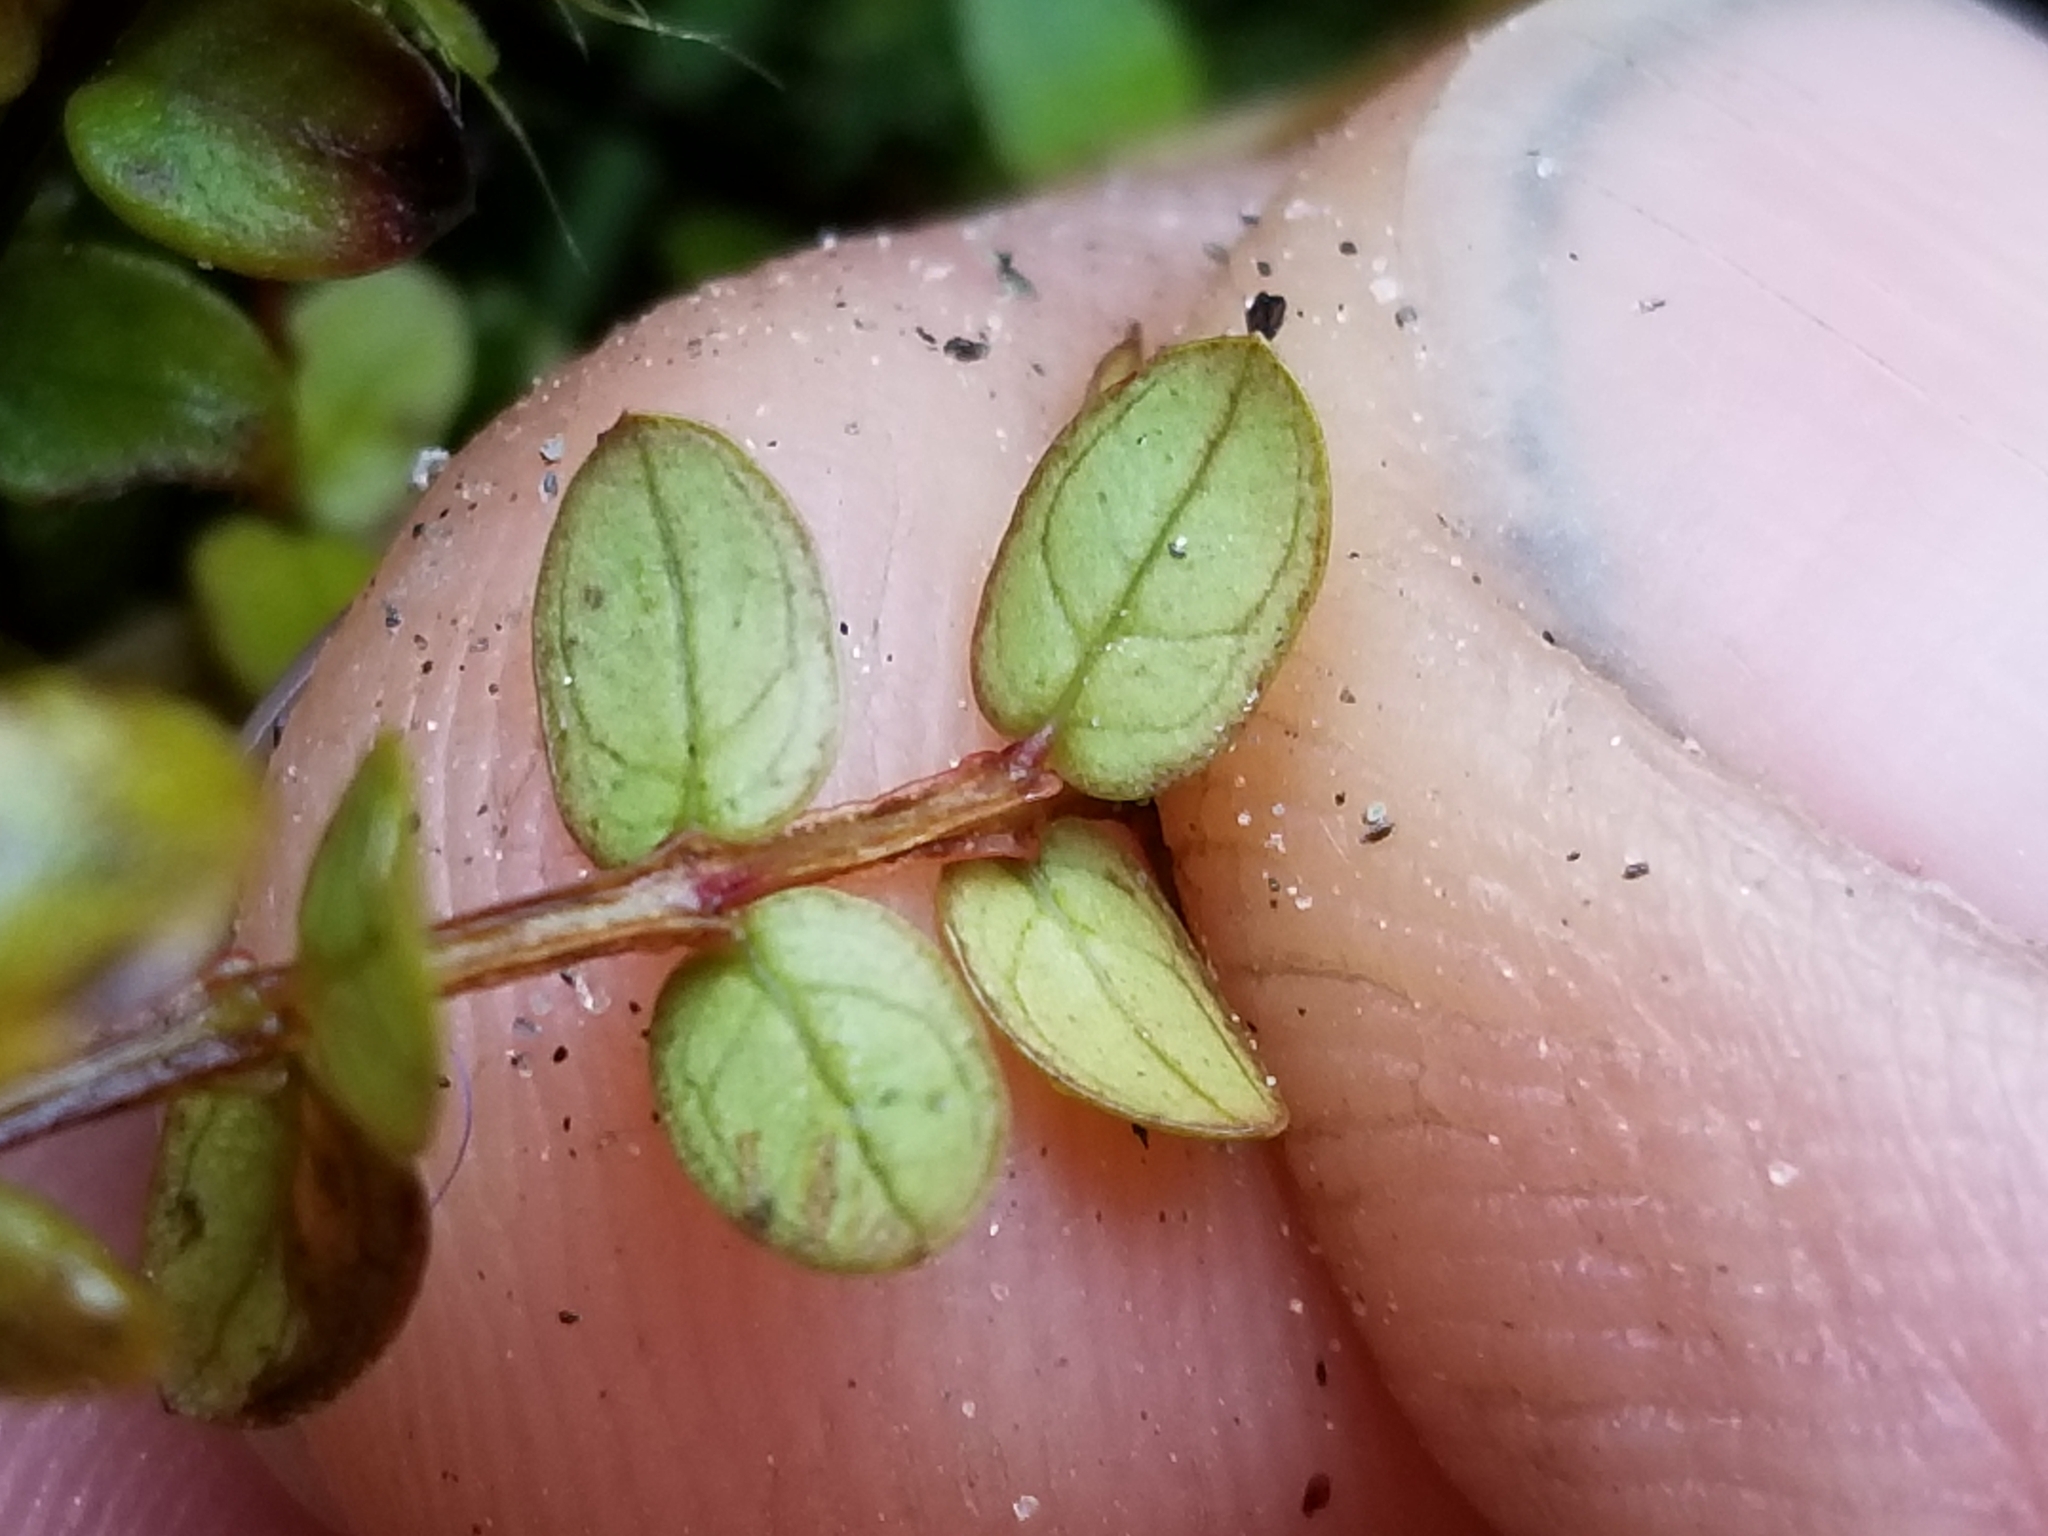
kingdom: Plantae
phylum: Tracheophyta
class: Magnoliopsida
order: Myrtales
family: Myrtaceae
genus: Metrosideros
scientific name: Metrosideros diffusa
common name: Small ratavine
